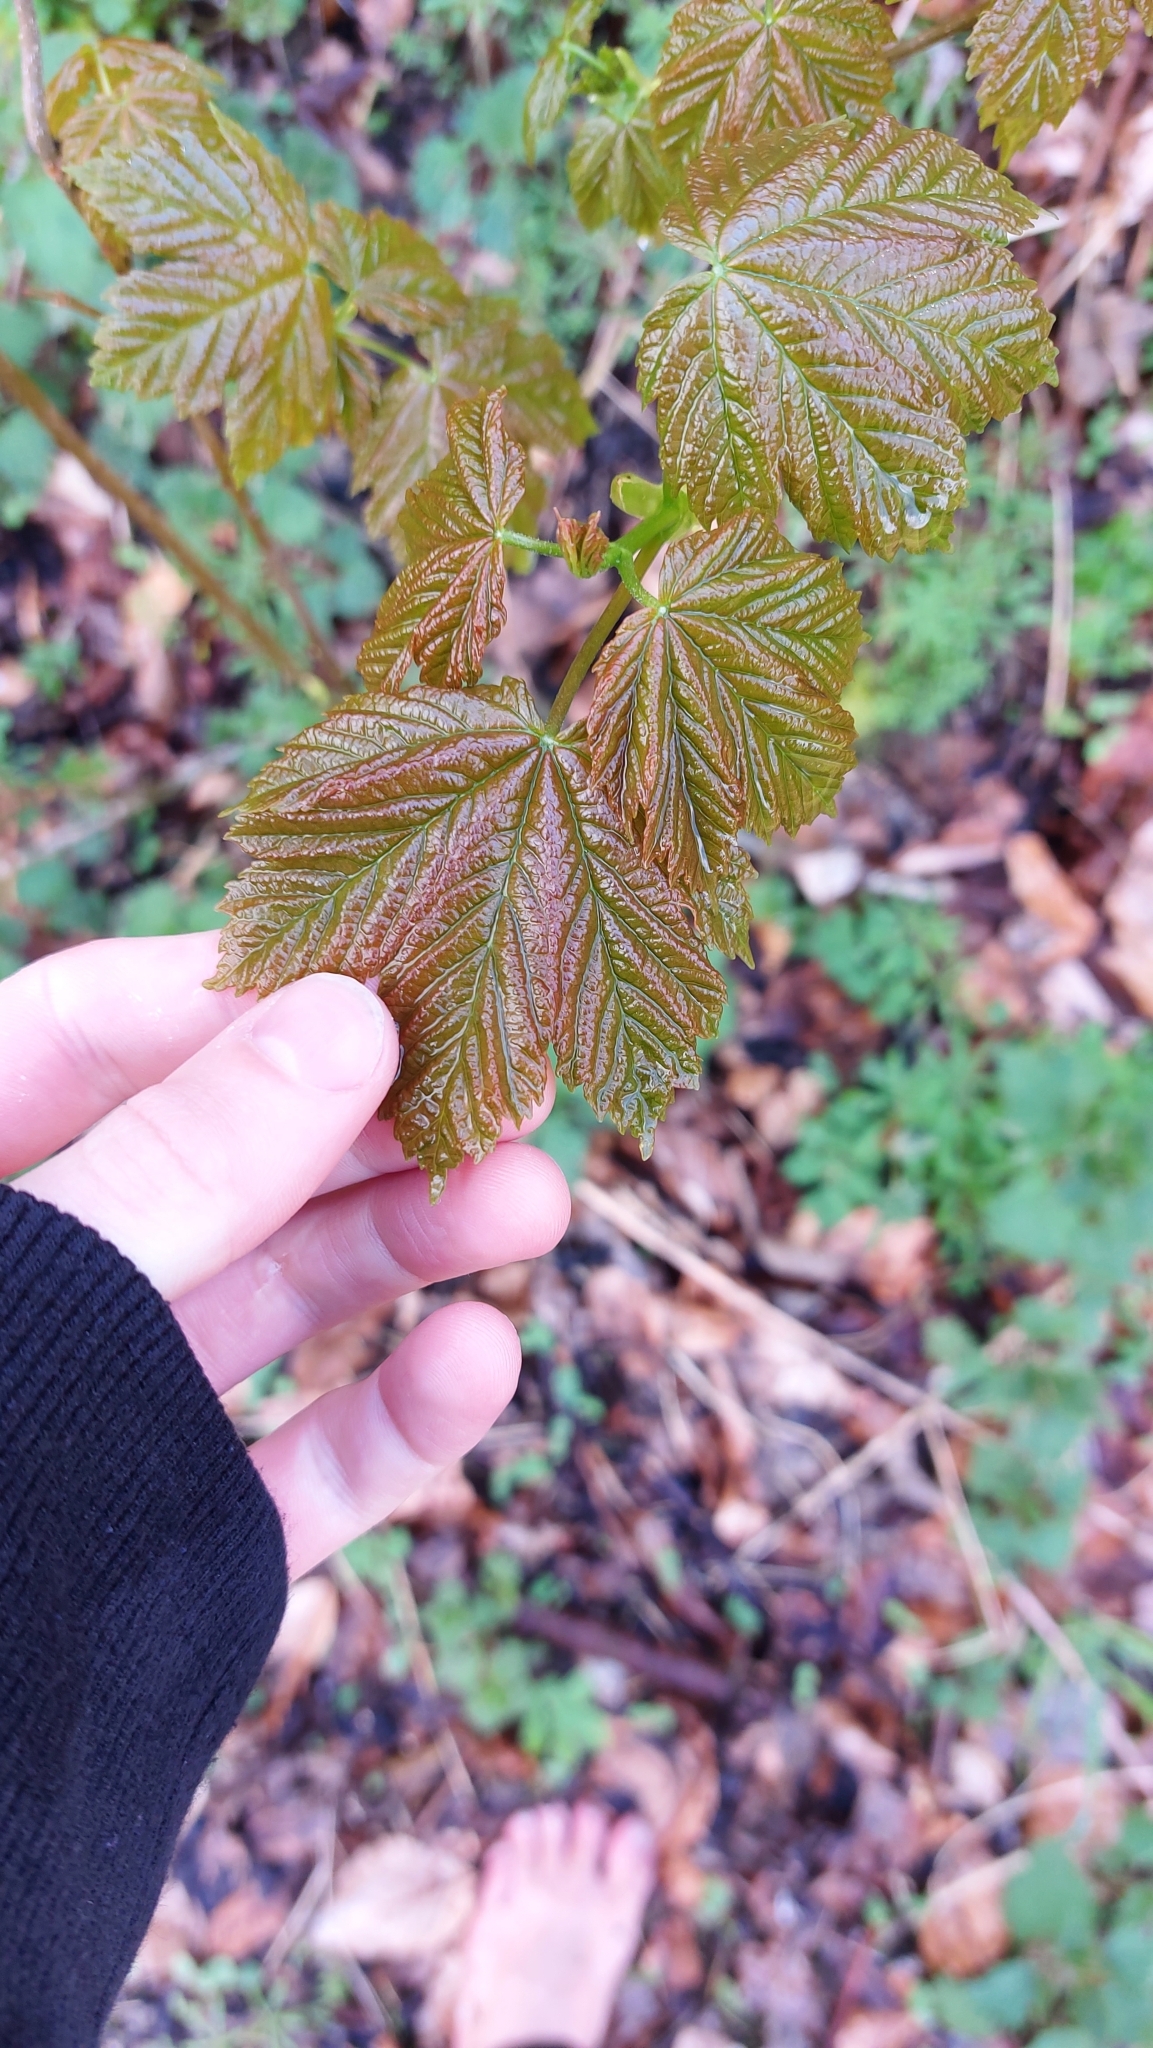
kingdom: Plantae
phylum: Tracheophyta
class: Magnoliopsida
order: Sapindales
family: Sapindaceae
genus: Acer
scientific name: Acer pseudoplatanus
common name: Sycamore
